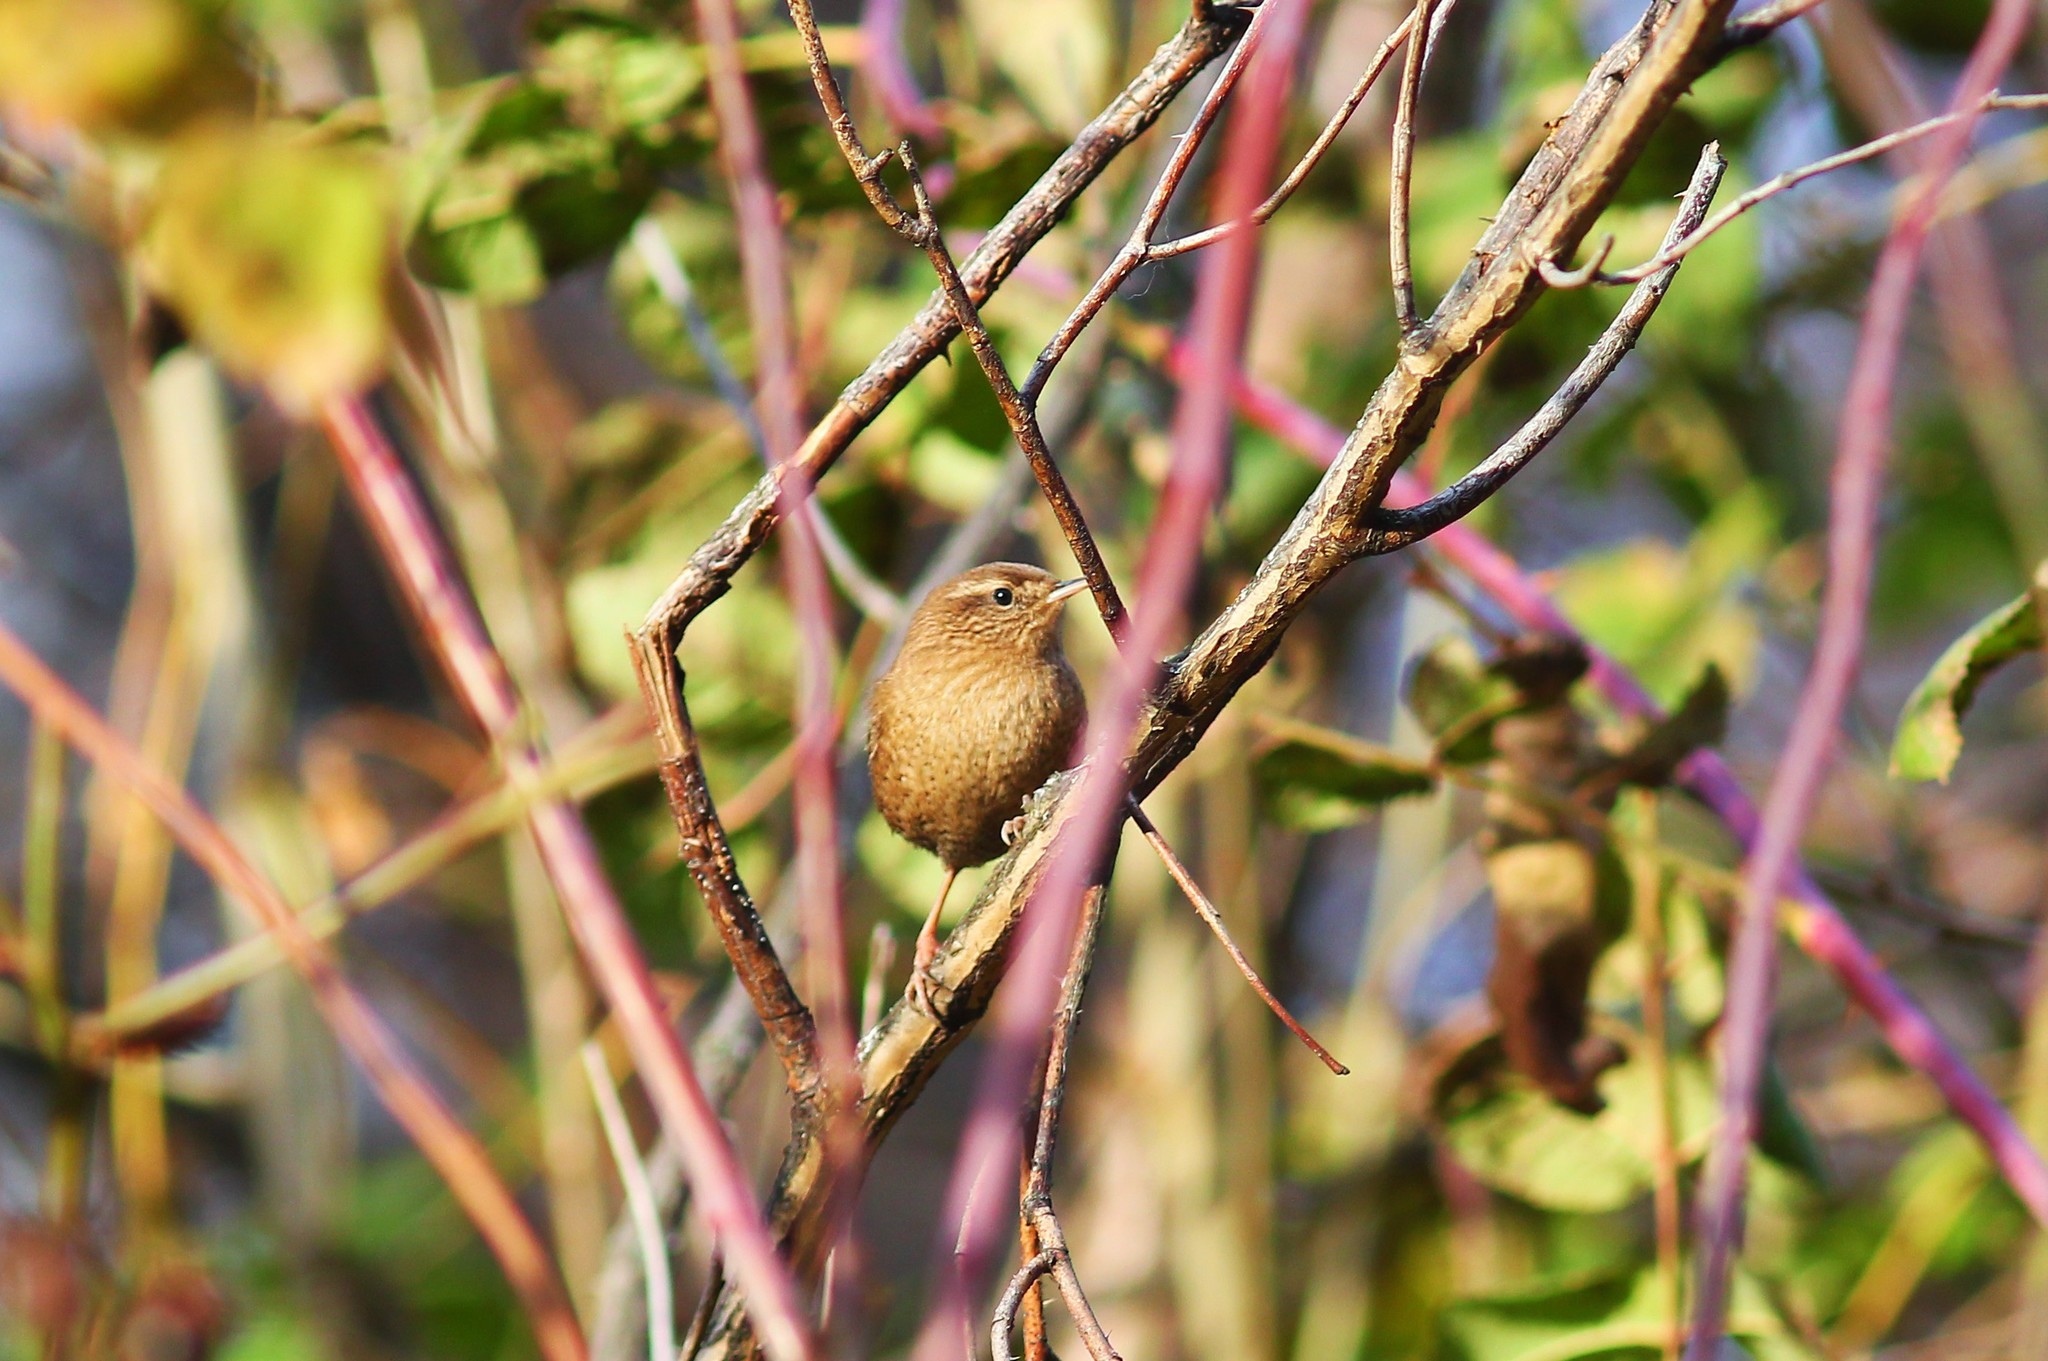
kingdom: Animalia
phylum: Chordata
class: Aves
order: Passeriformes
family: Troglodytidae
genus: Troglodytes
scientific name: Troglodytes troglodytes
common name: Eurasian wren
